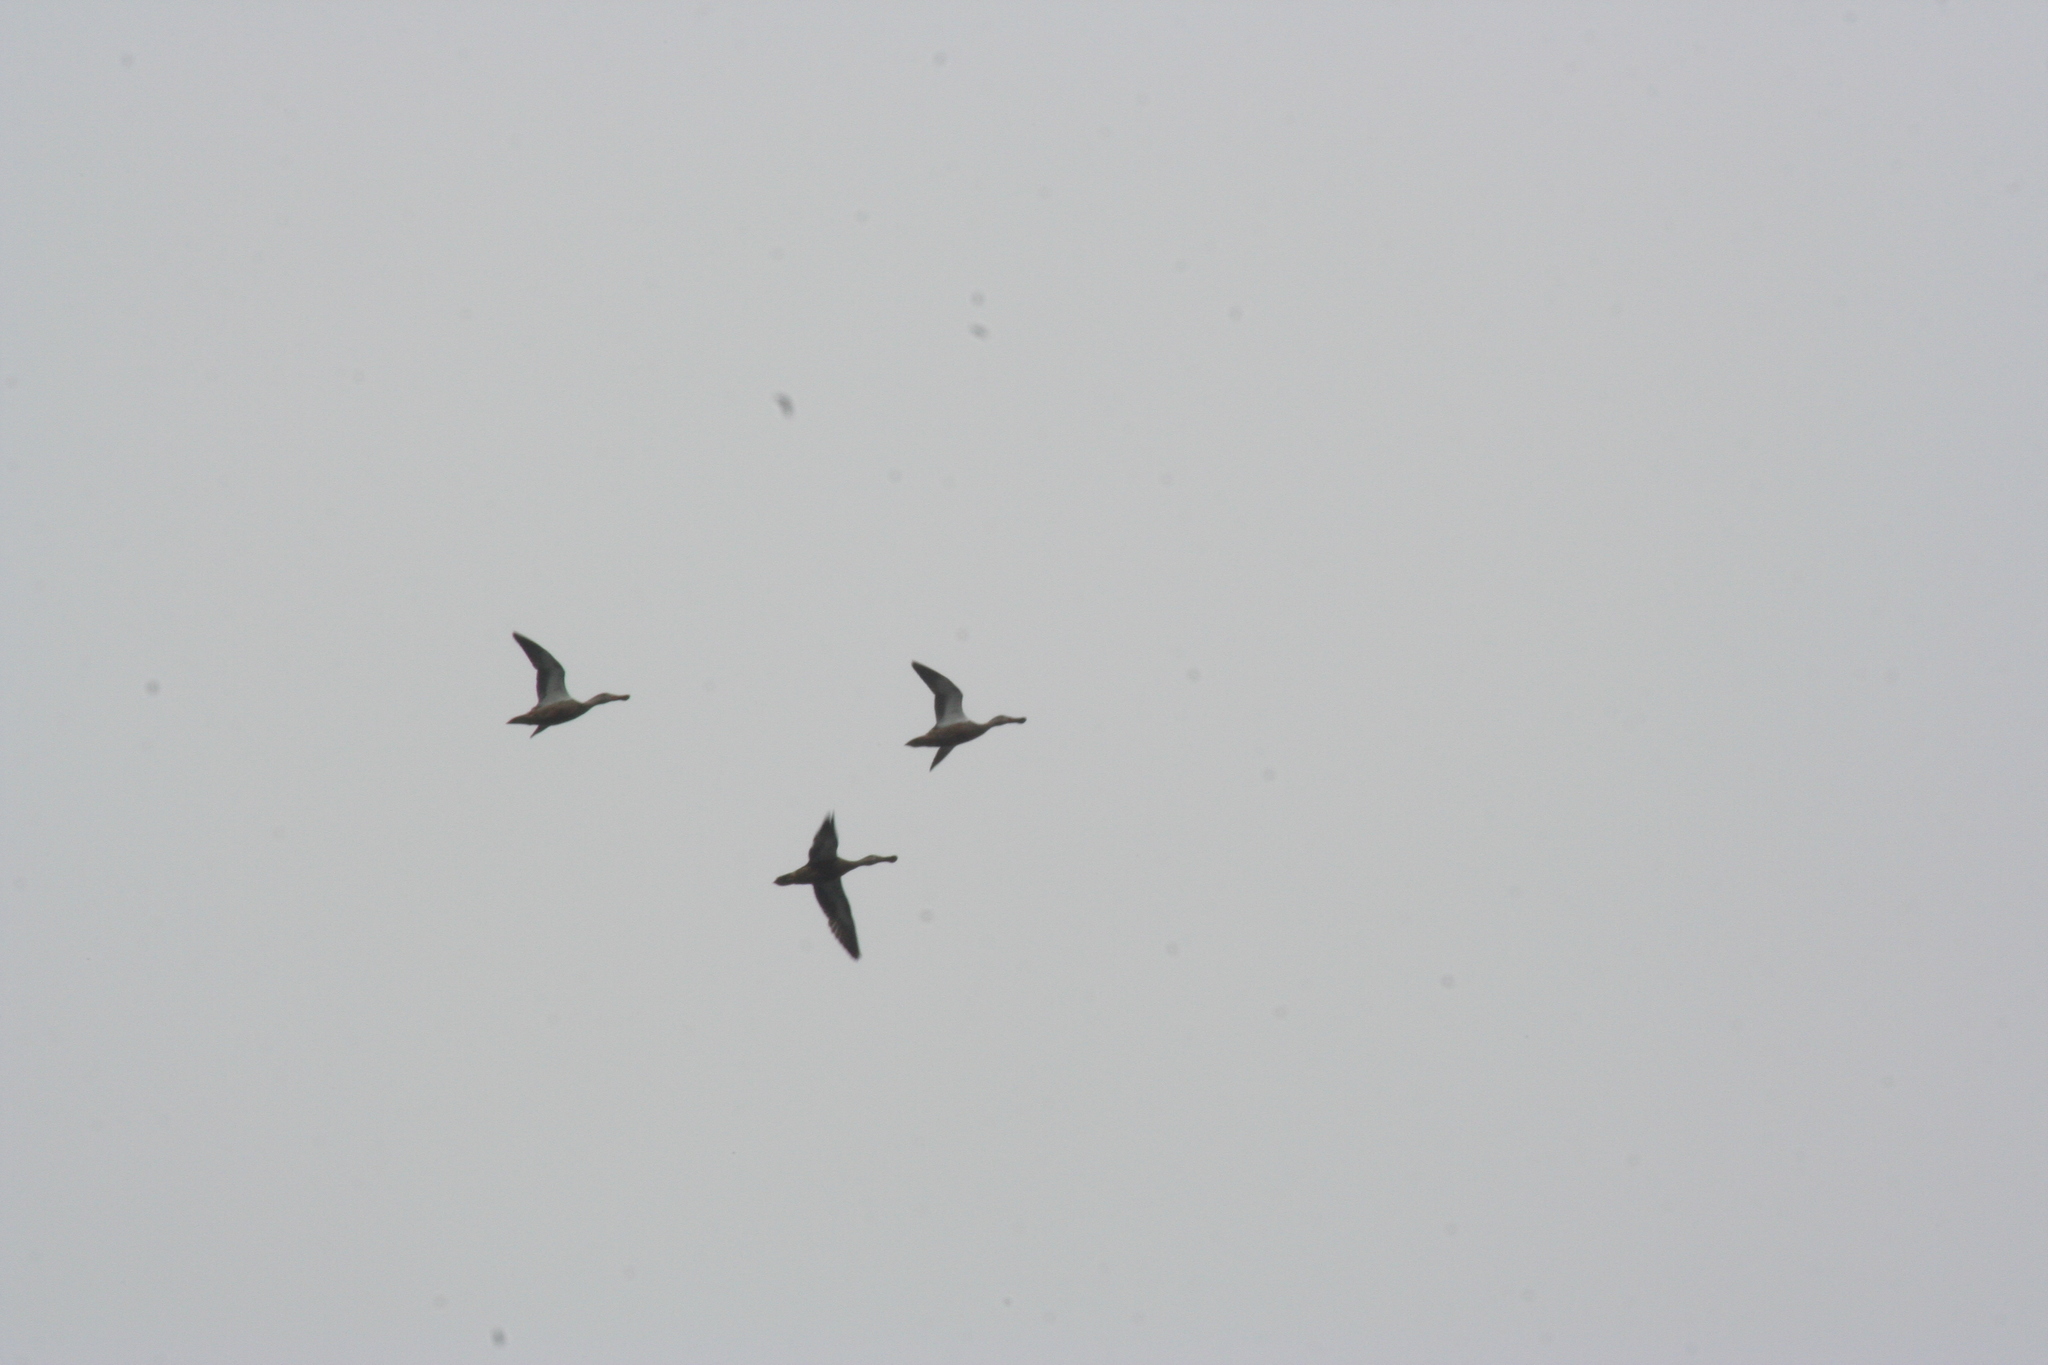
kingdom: Animalia
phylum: Chordata
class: Aves
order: Anseriformes
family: Anatidae
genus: Spatula
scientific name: Spatula clypeata
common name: Northern shoveler
